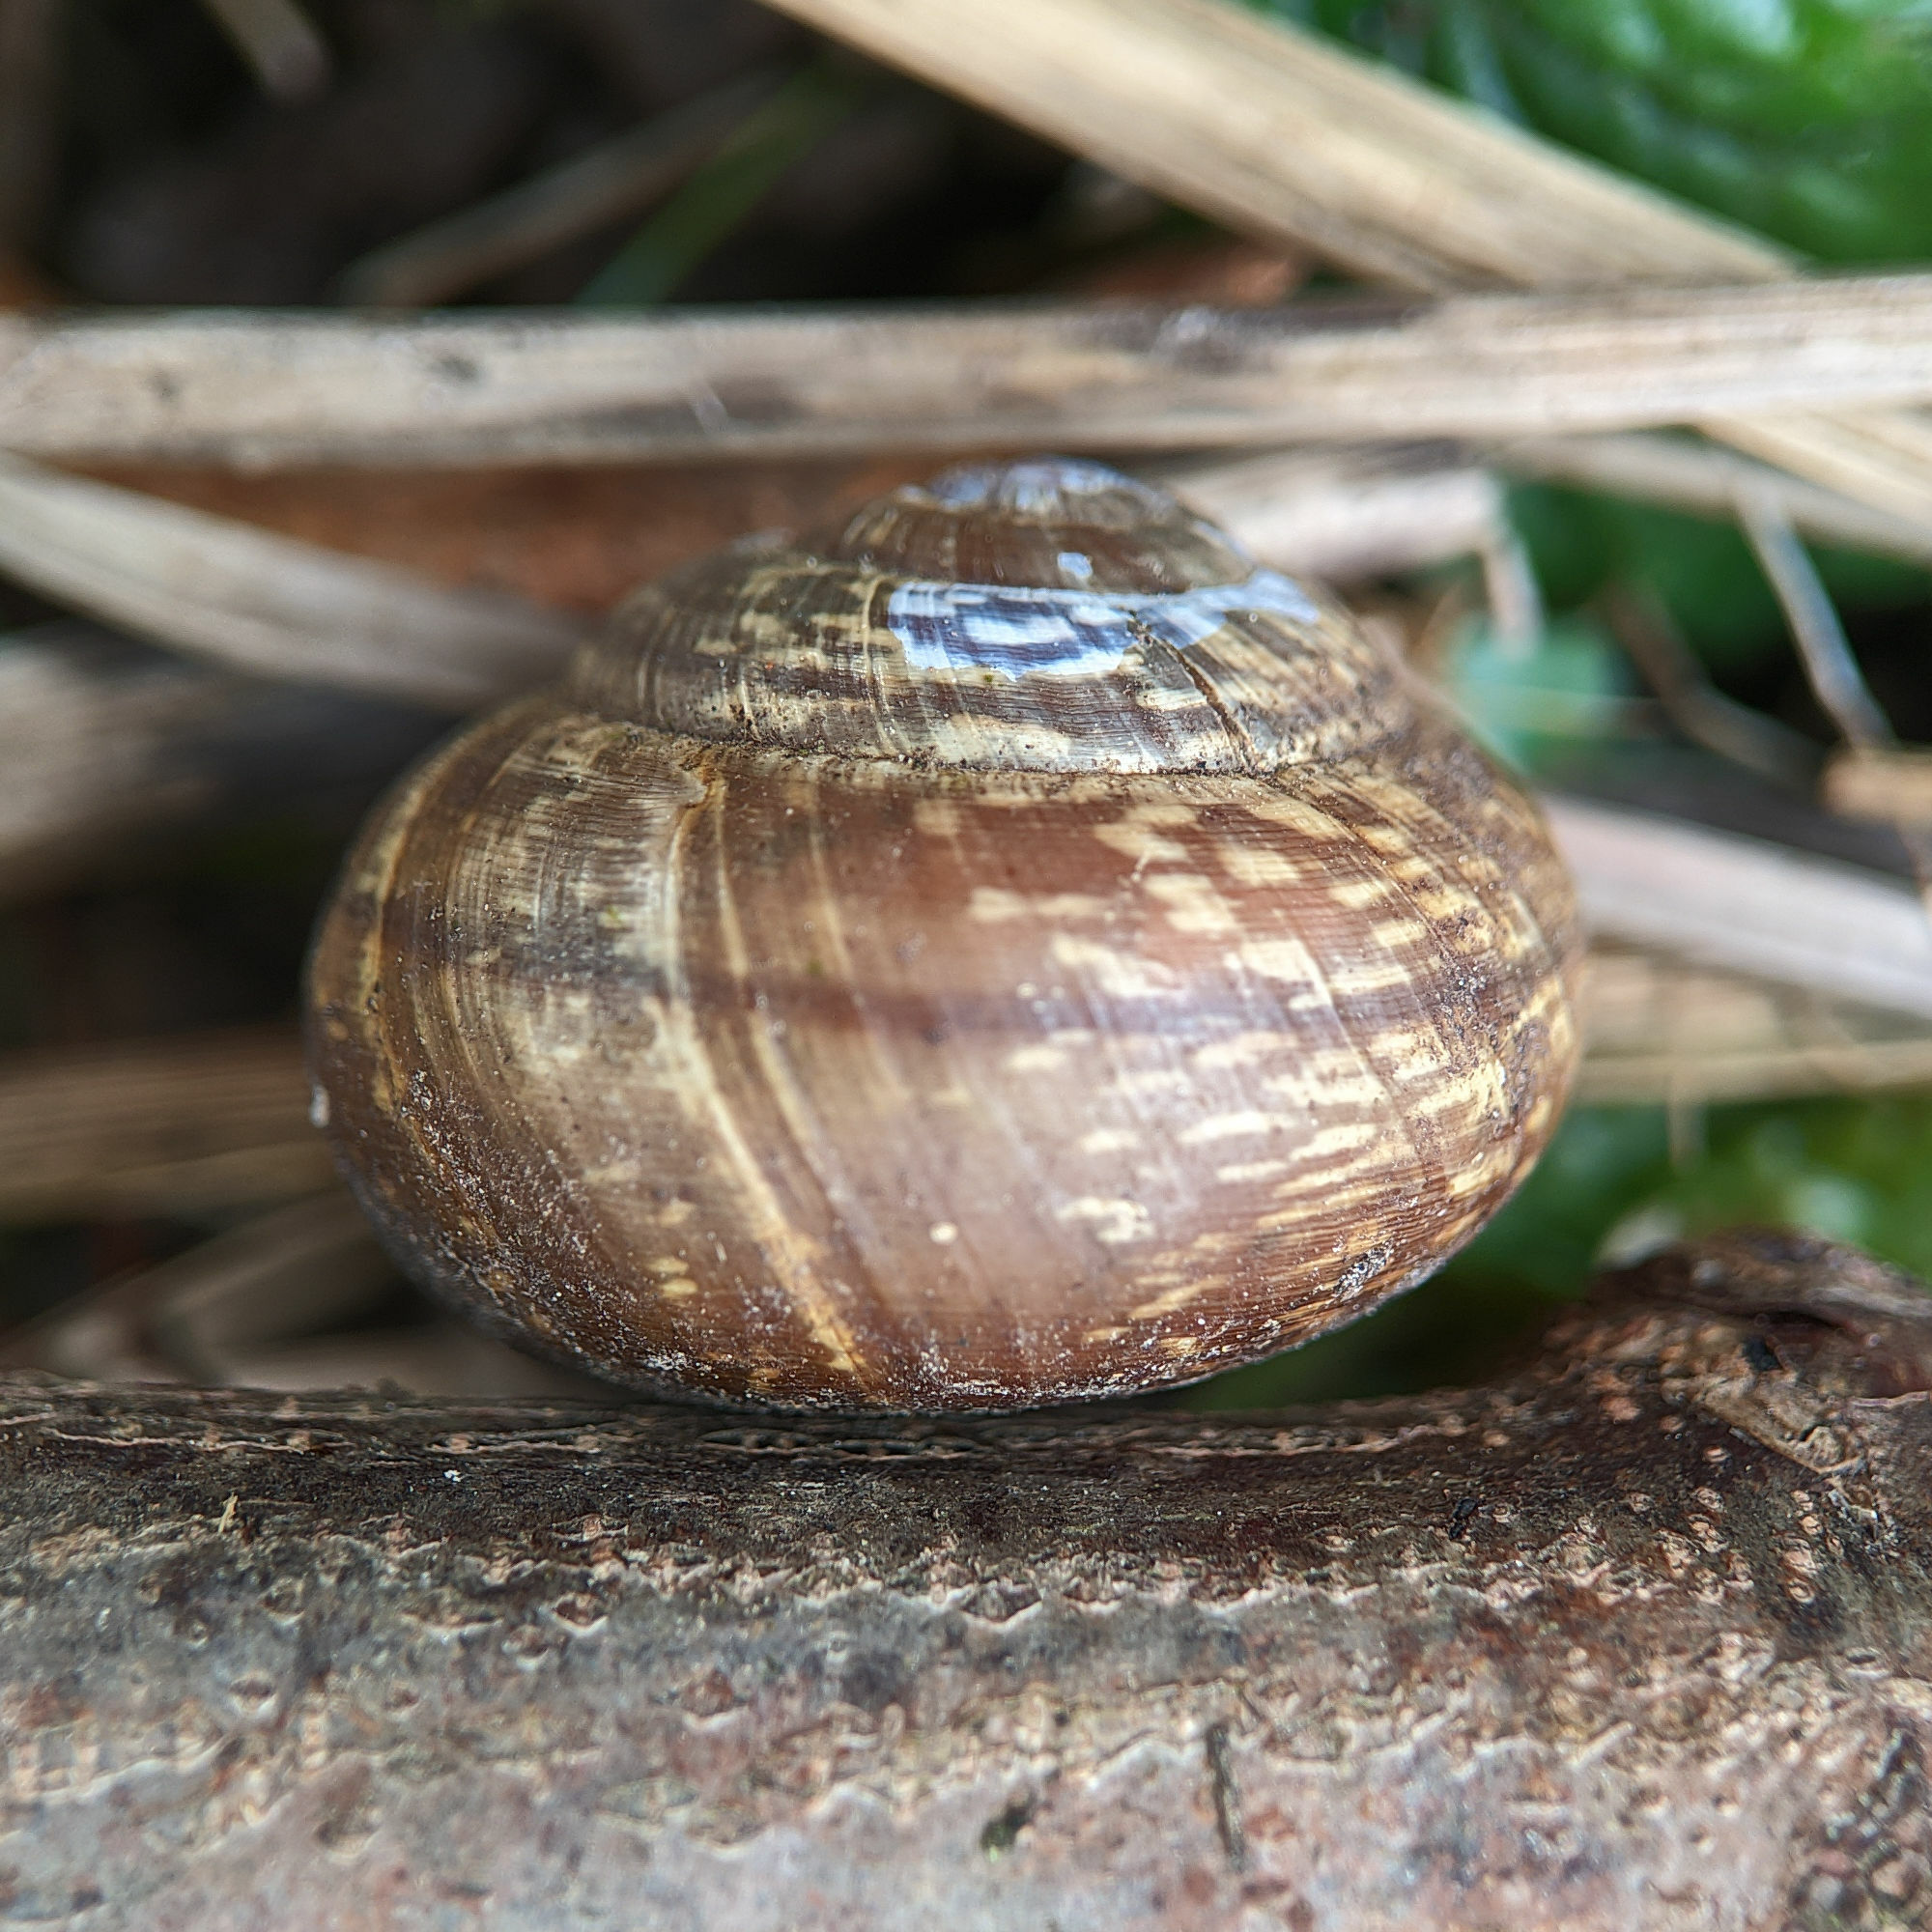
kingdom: Animalia
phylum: Mollusca
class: Gastropoda
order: Stylommatophora
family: Helicidae
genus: Arianta
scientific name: Arianta arbustorum
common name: Copse snail
